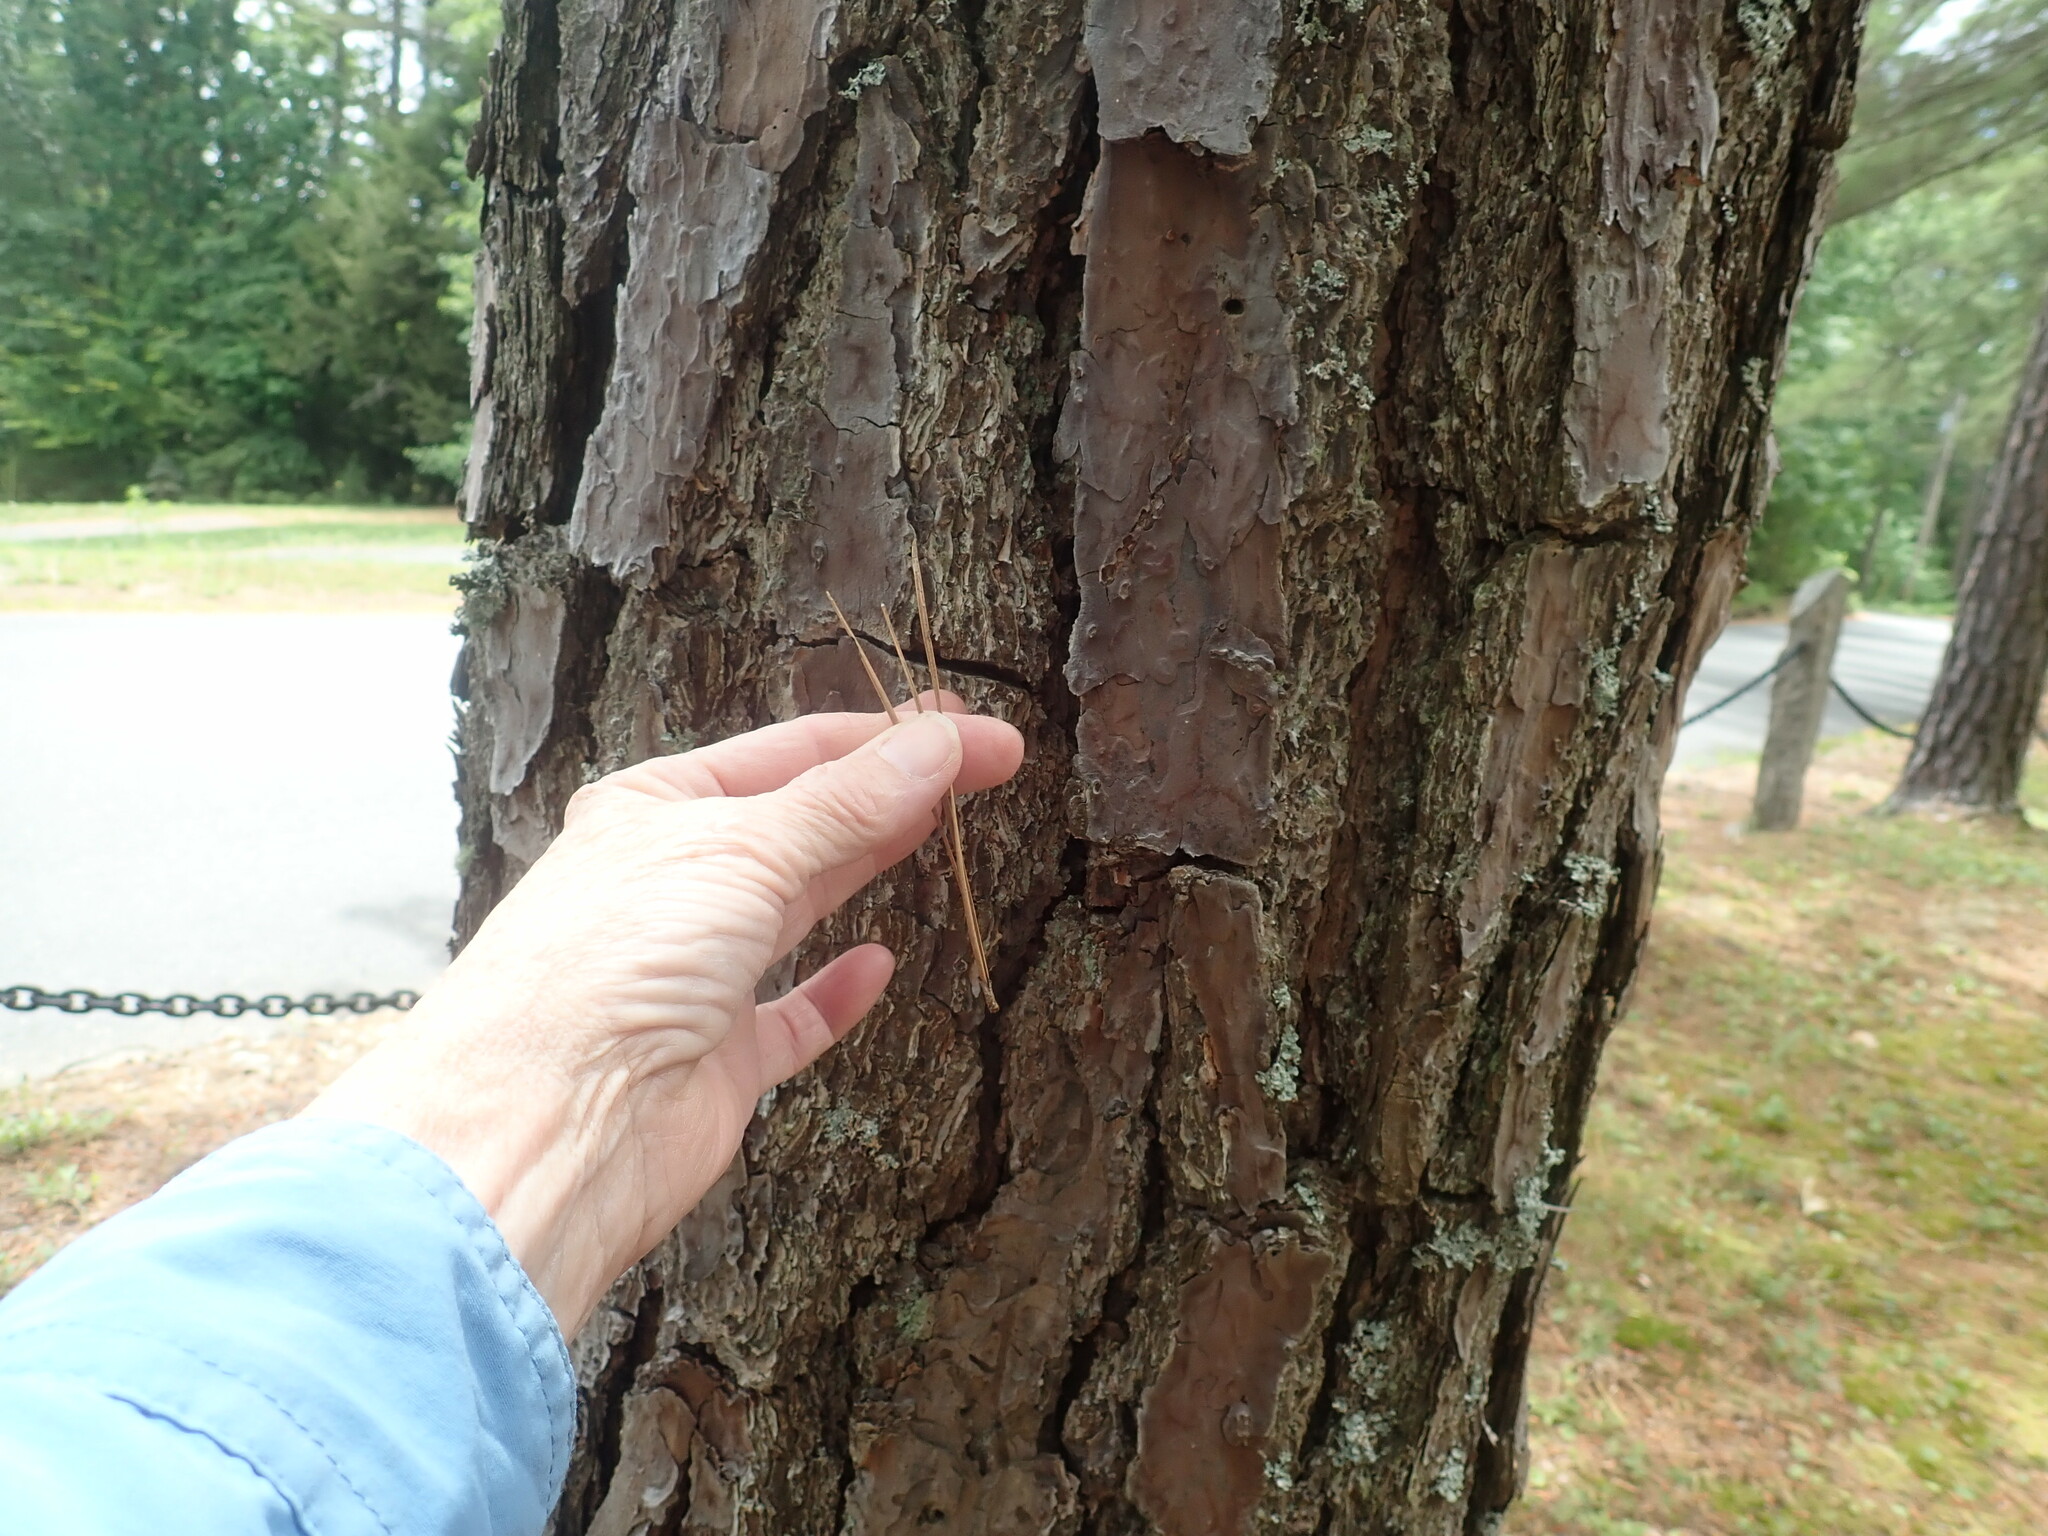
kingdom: Plantae
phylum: Tracheophyta
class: Pinopsida
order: Pinales
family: Pinaceae
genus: Pinus
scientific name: Pinus rigida
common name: Pitch pine
